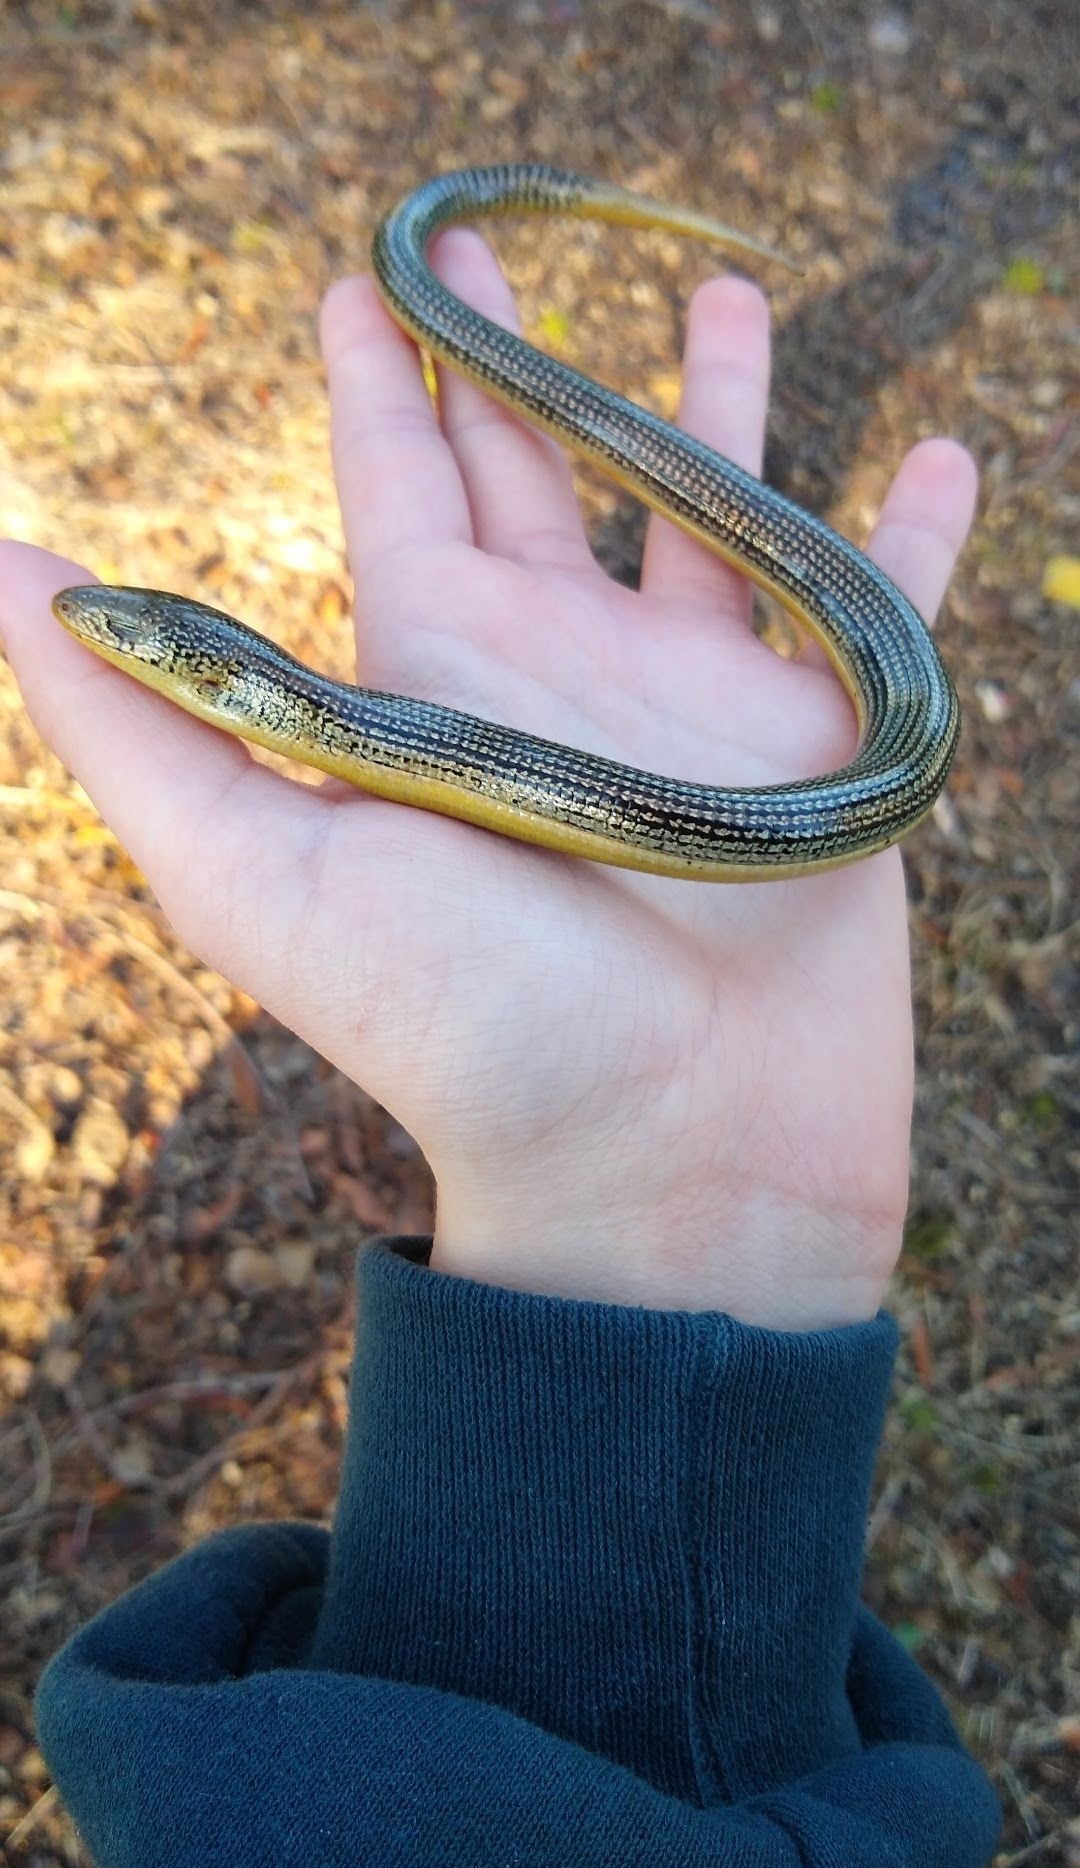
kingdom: Animalia
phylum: Chordata
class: Squamata
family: Anguidae
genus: Ophisaurus
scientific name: Ophisaurus ventralis
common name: Eastern glass lizard
